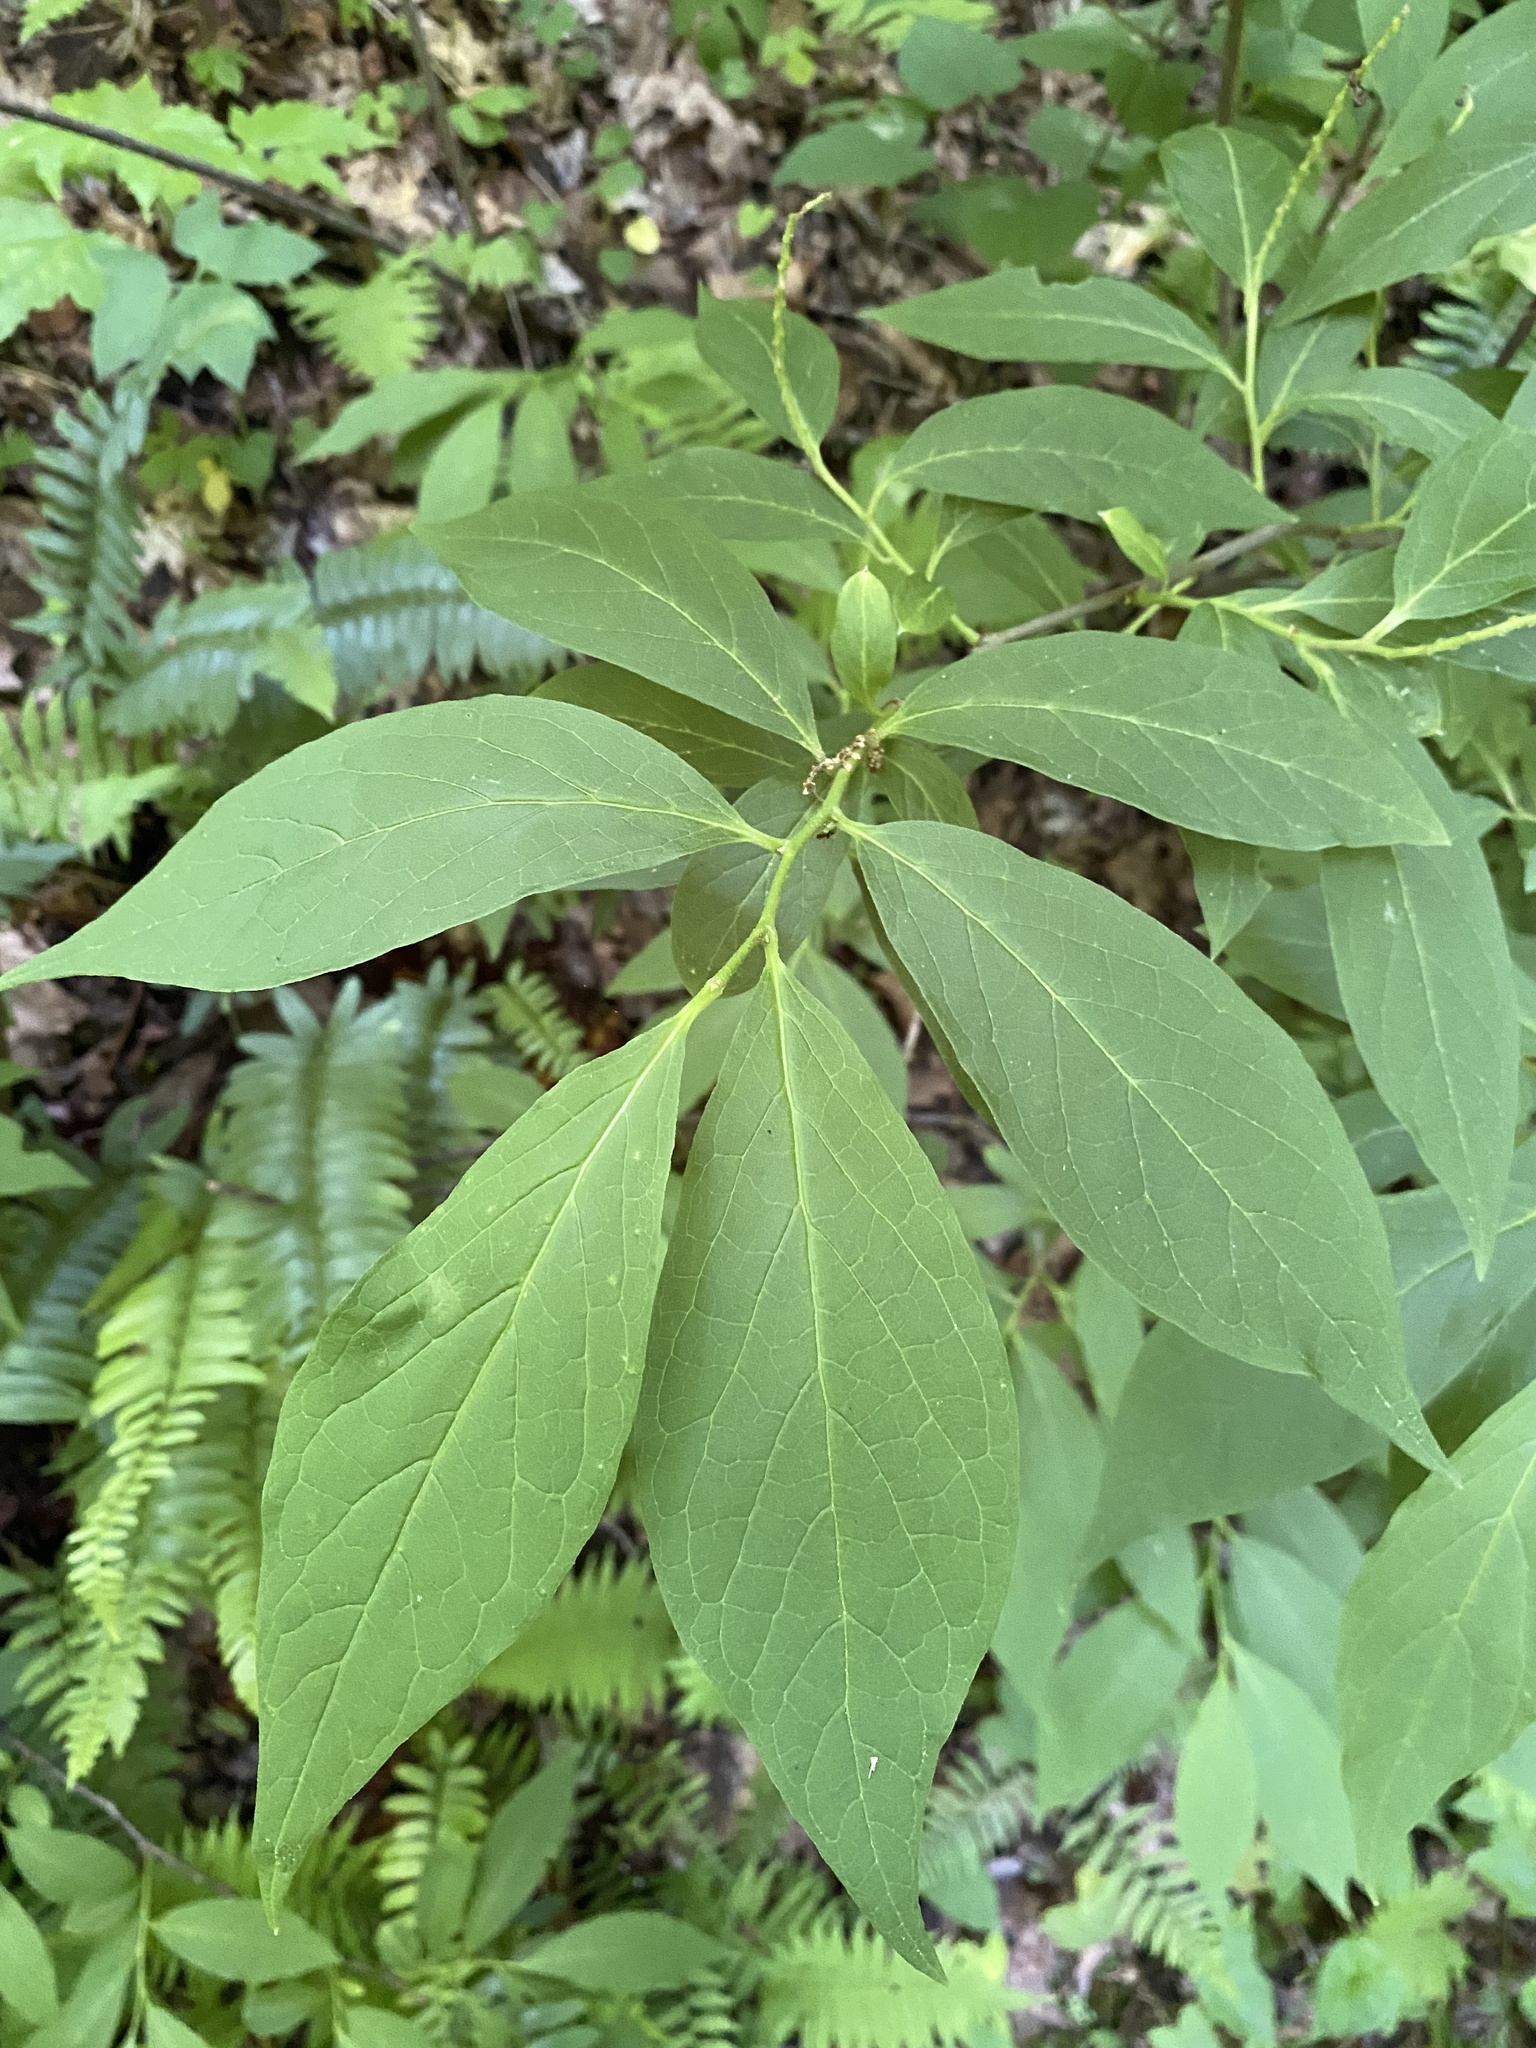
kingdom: Plantae
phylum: Tracheophyta
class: Magnoliopsida
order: Santalales
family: Cervantesiaceae
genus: Pyrularia
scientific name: Pyrularia pubera
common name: Oilnut
